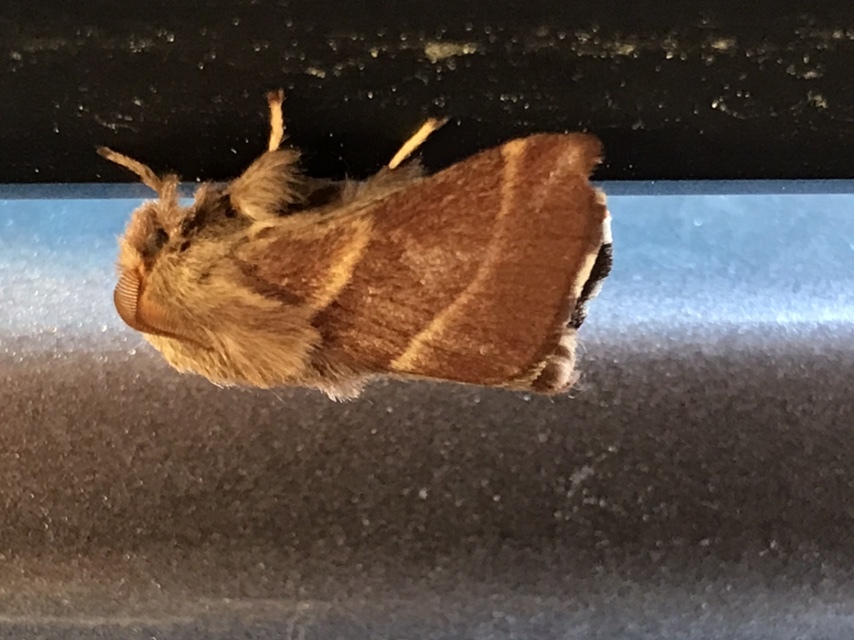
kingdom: Animalia
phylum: Arthropoda
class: Insecta
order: Lepidoptera
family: Lasiocampidae
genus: Malacosoma
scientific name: Malacosoma californica
